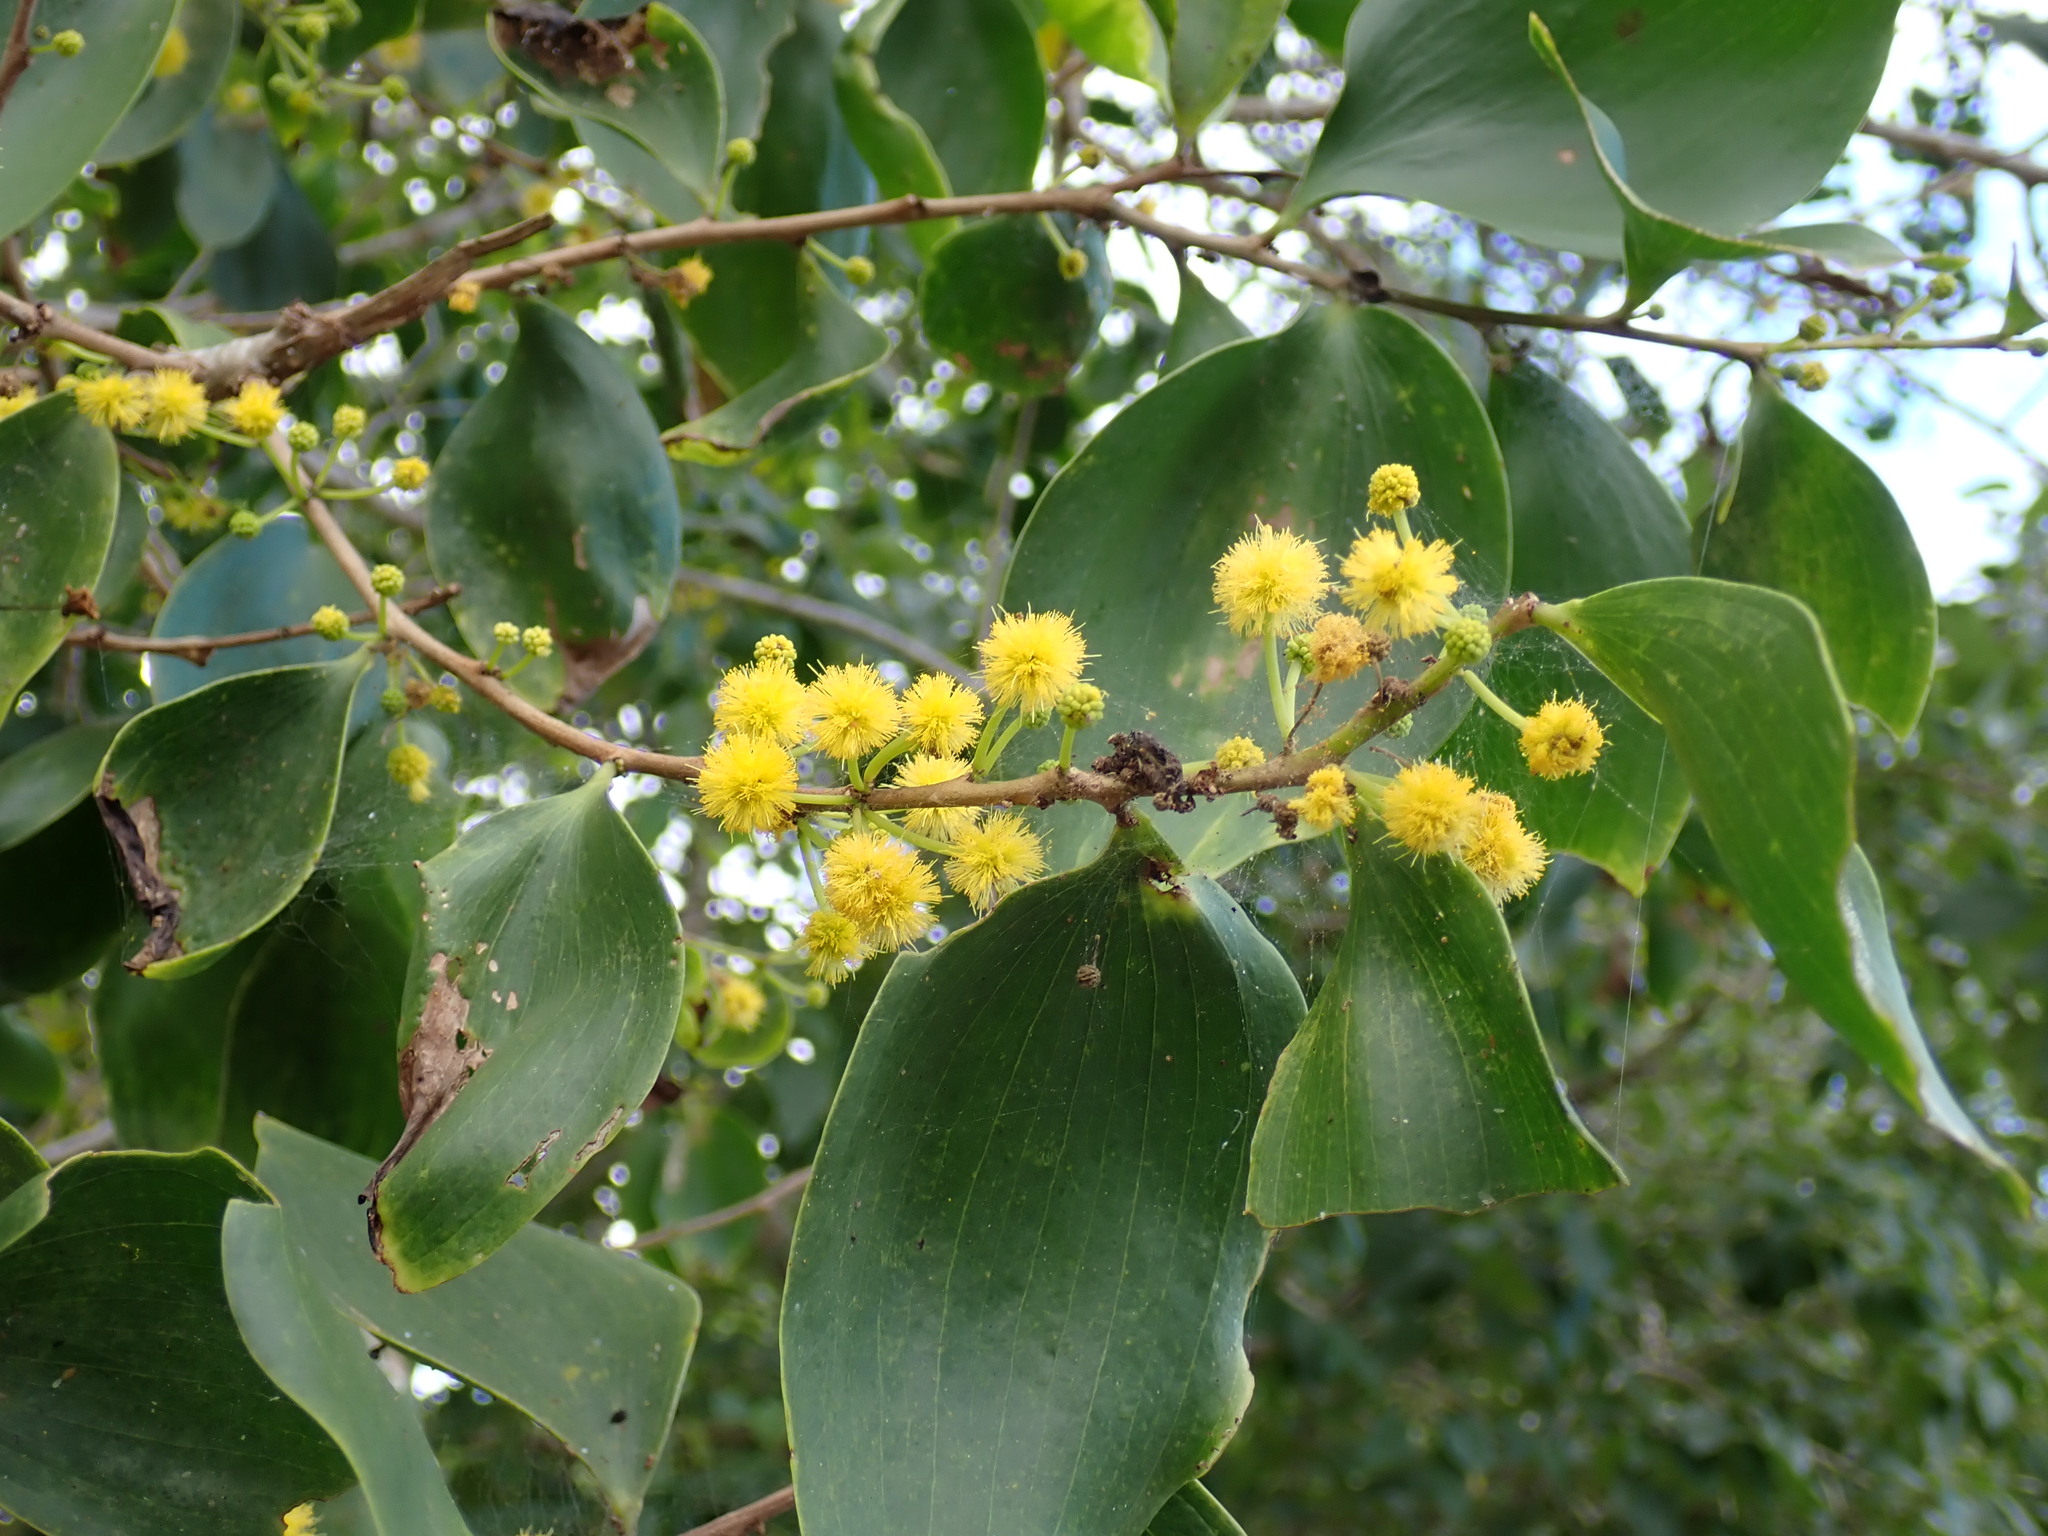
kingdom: Plantae
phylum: Tracheophyta
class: Magnoliopsida
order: Fabales
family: Fabaceae
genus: Acacia
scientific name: Acacia simplex
